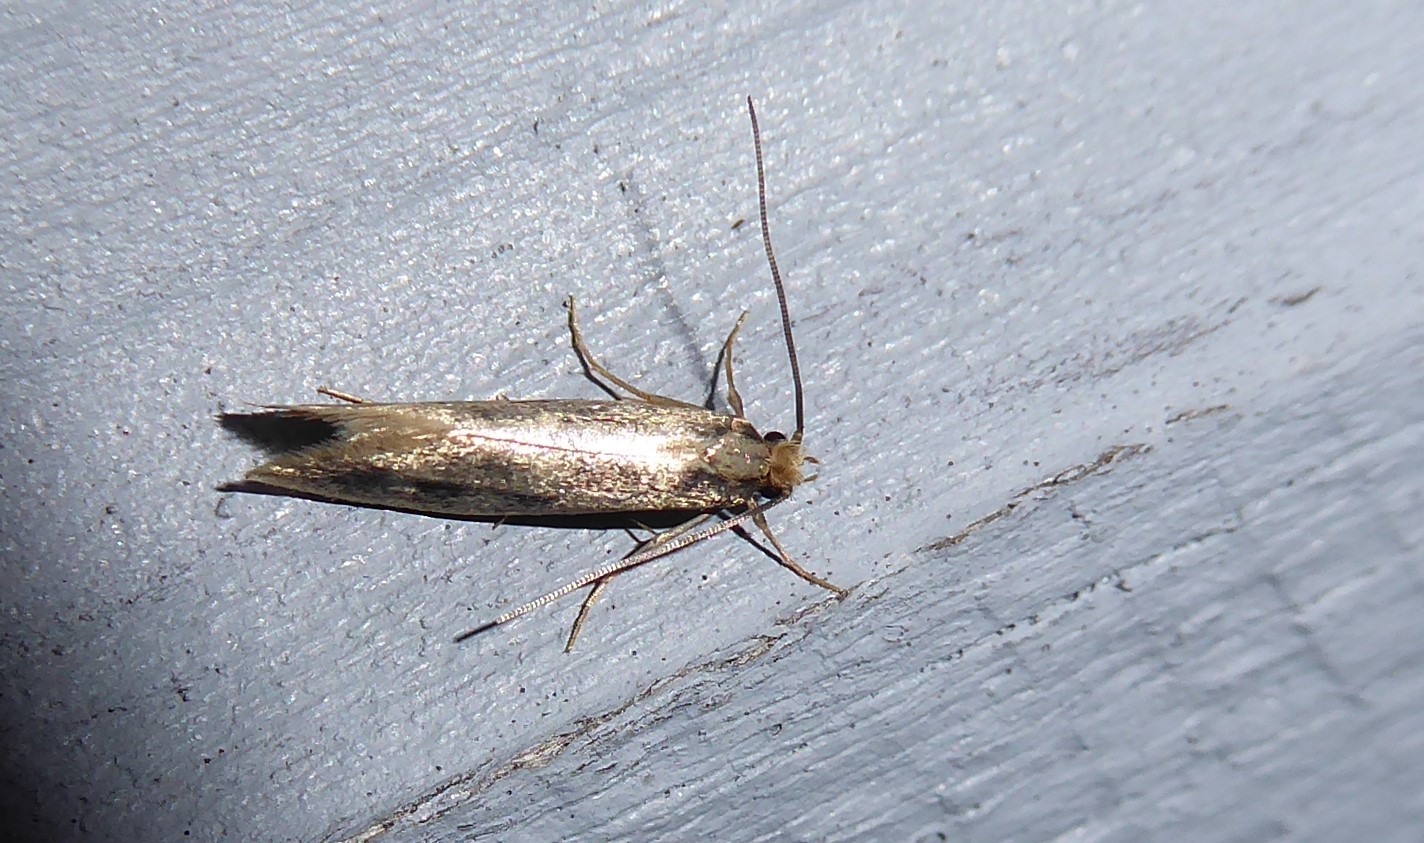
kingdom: Animalia
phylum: Arthropoda
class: Insecta
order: Lepidoptera
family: Tineidae
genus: Tinea
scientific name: Tinea pallescentella
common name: Large pale clothes moth
